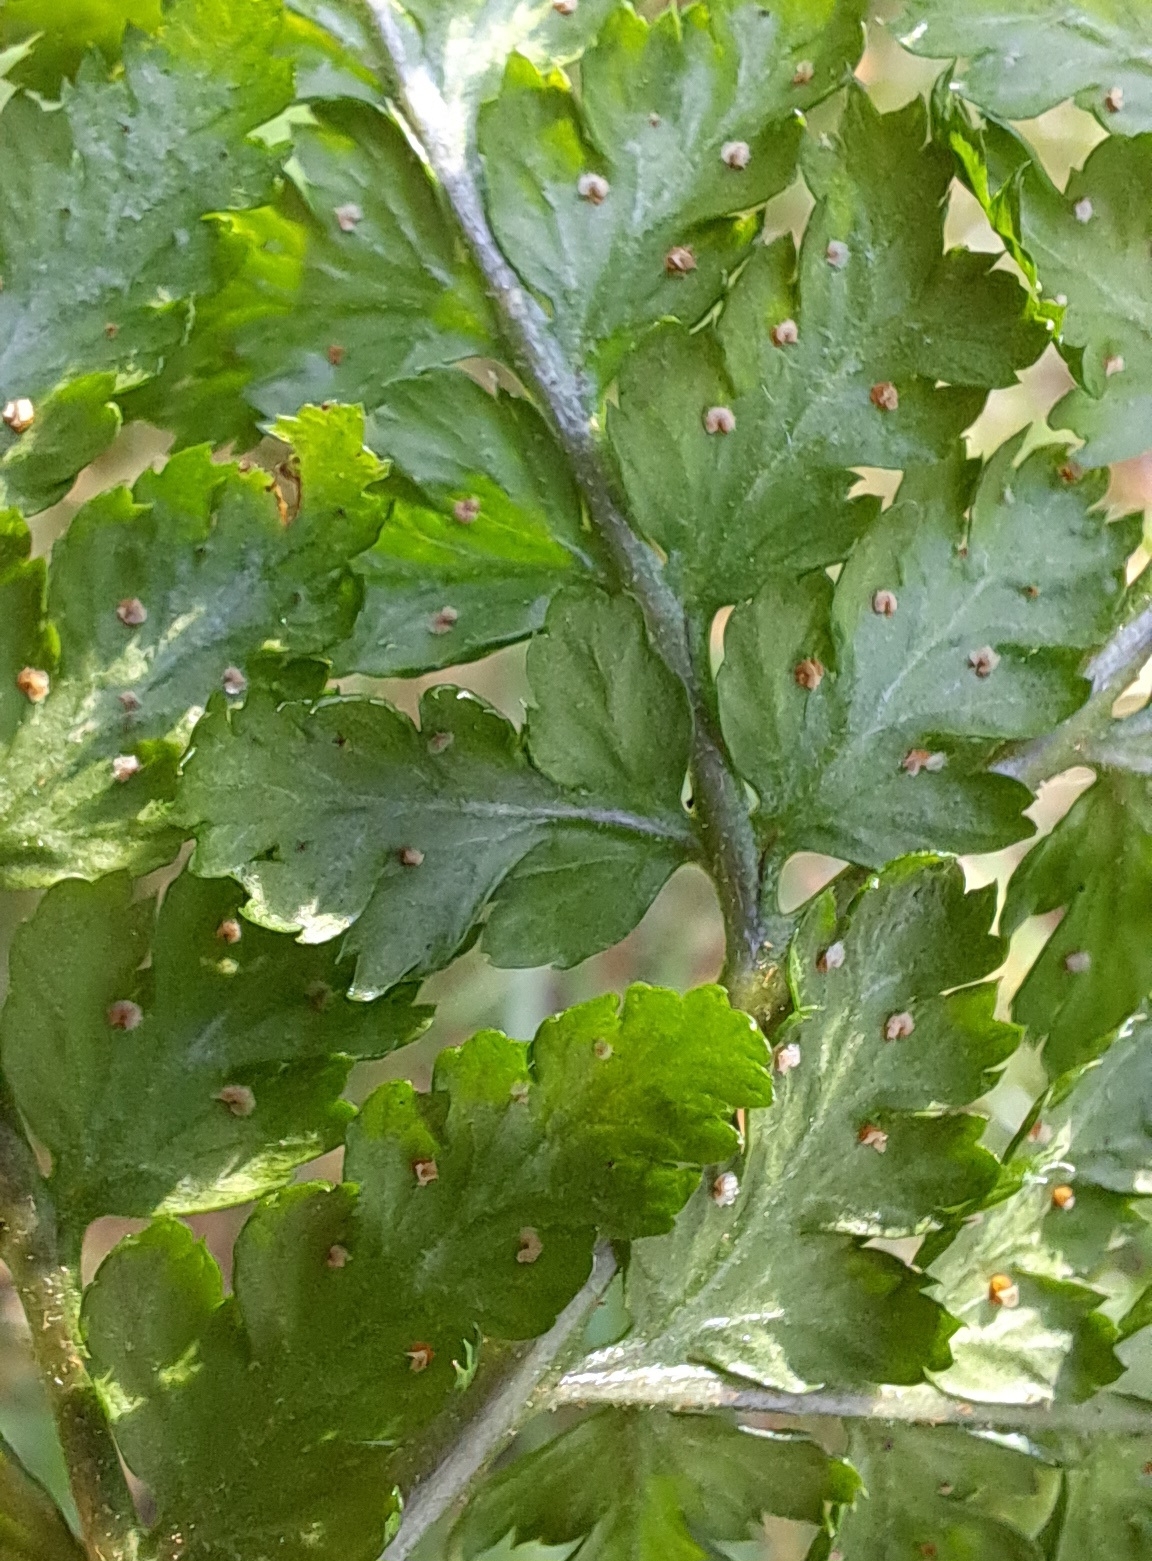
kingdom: Plantae
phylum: Tracheophyta
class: Polypodiopsida
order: Polypodiales
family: Dryopteridaceae
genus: Dryopteris
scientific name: Dryopteris dilatata
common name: Broad buckler-fern
